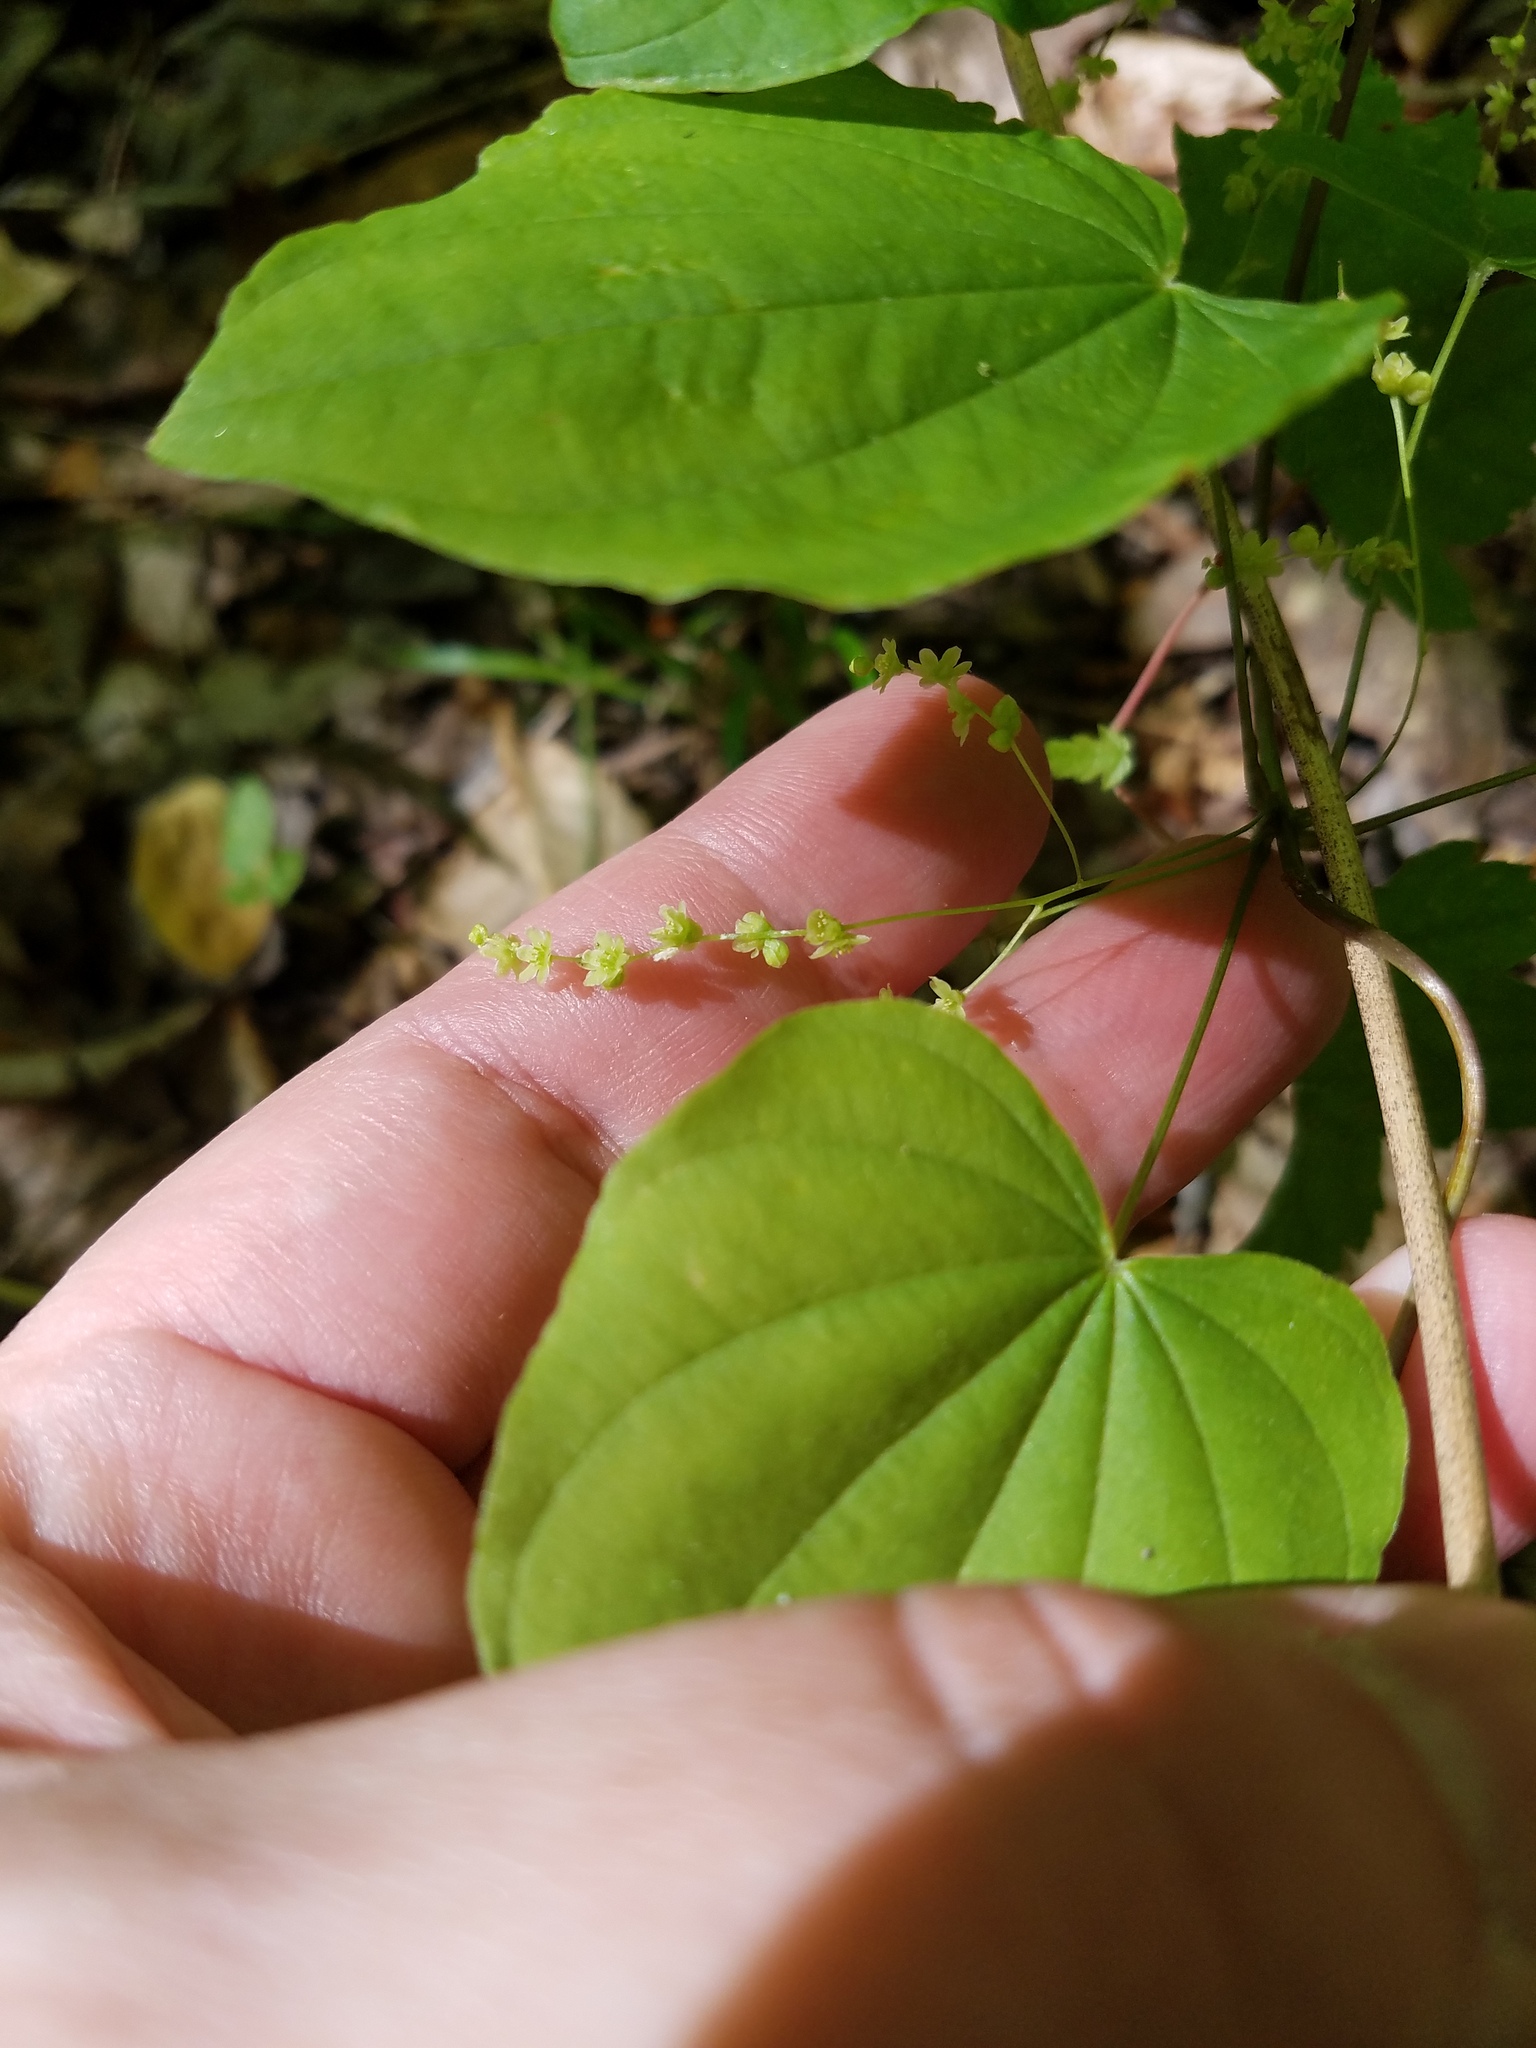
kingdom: Plantae
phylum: Tracheophyta
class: Liliopsida
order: Dioscoreales
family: Dioscoreaceae
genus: Dioscorea
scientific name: Dioscorea villosa
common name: Wild yam
